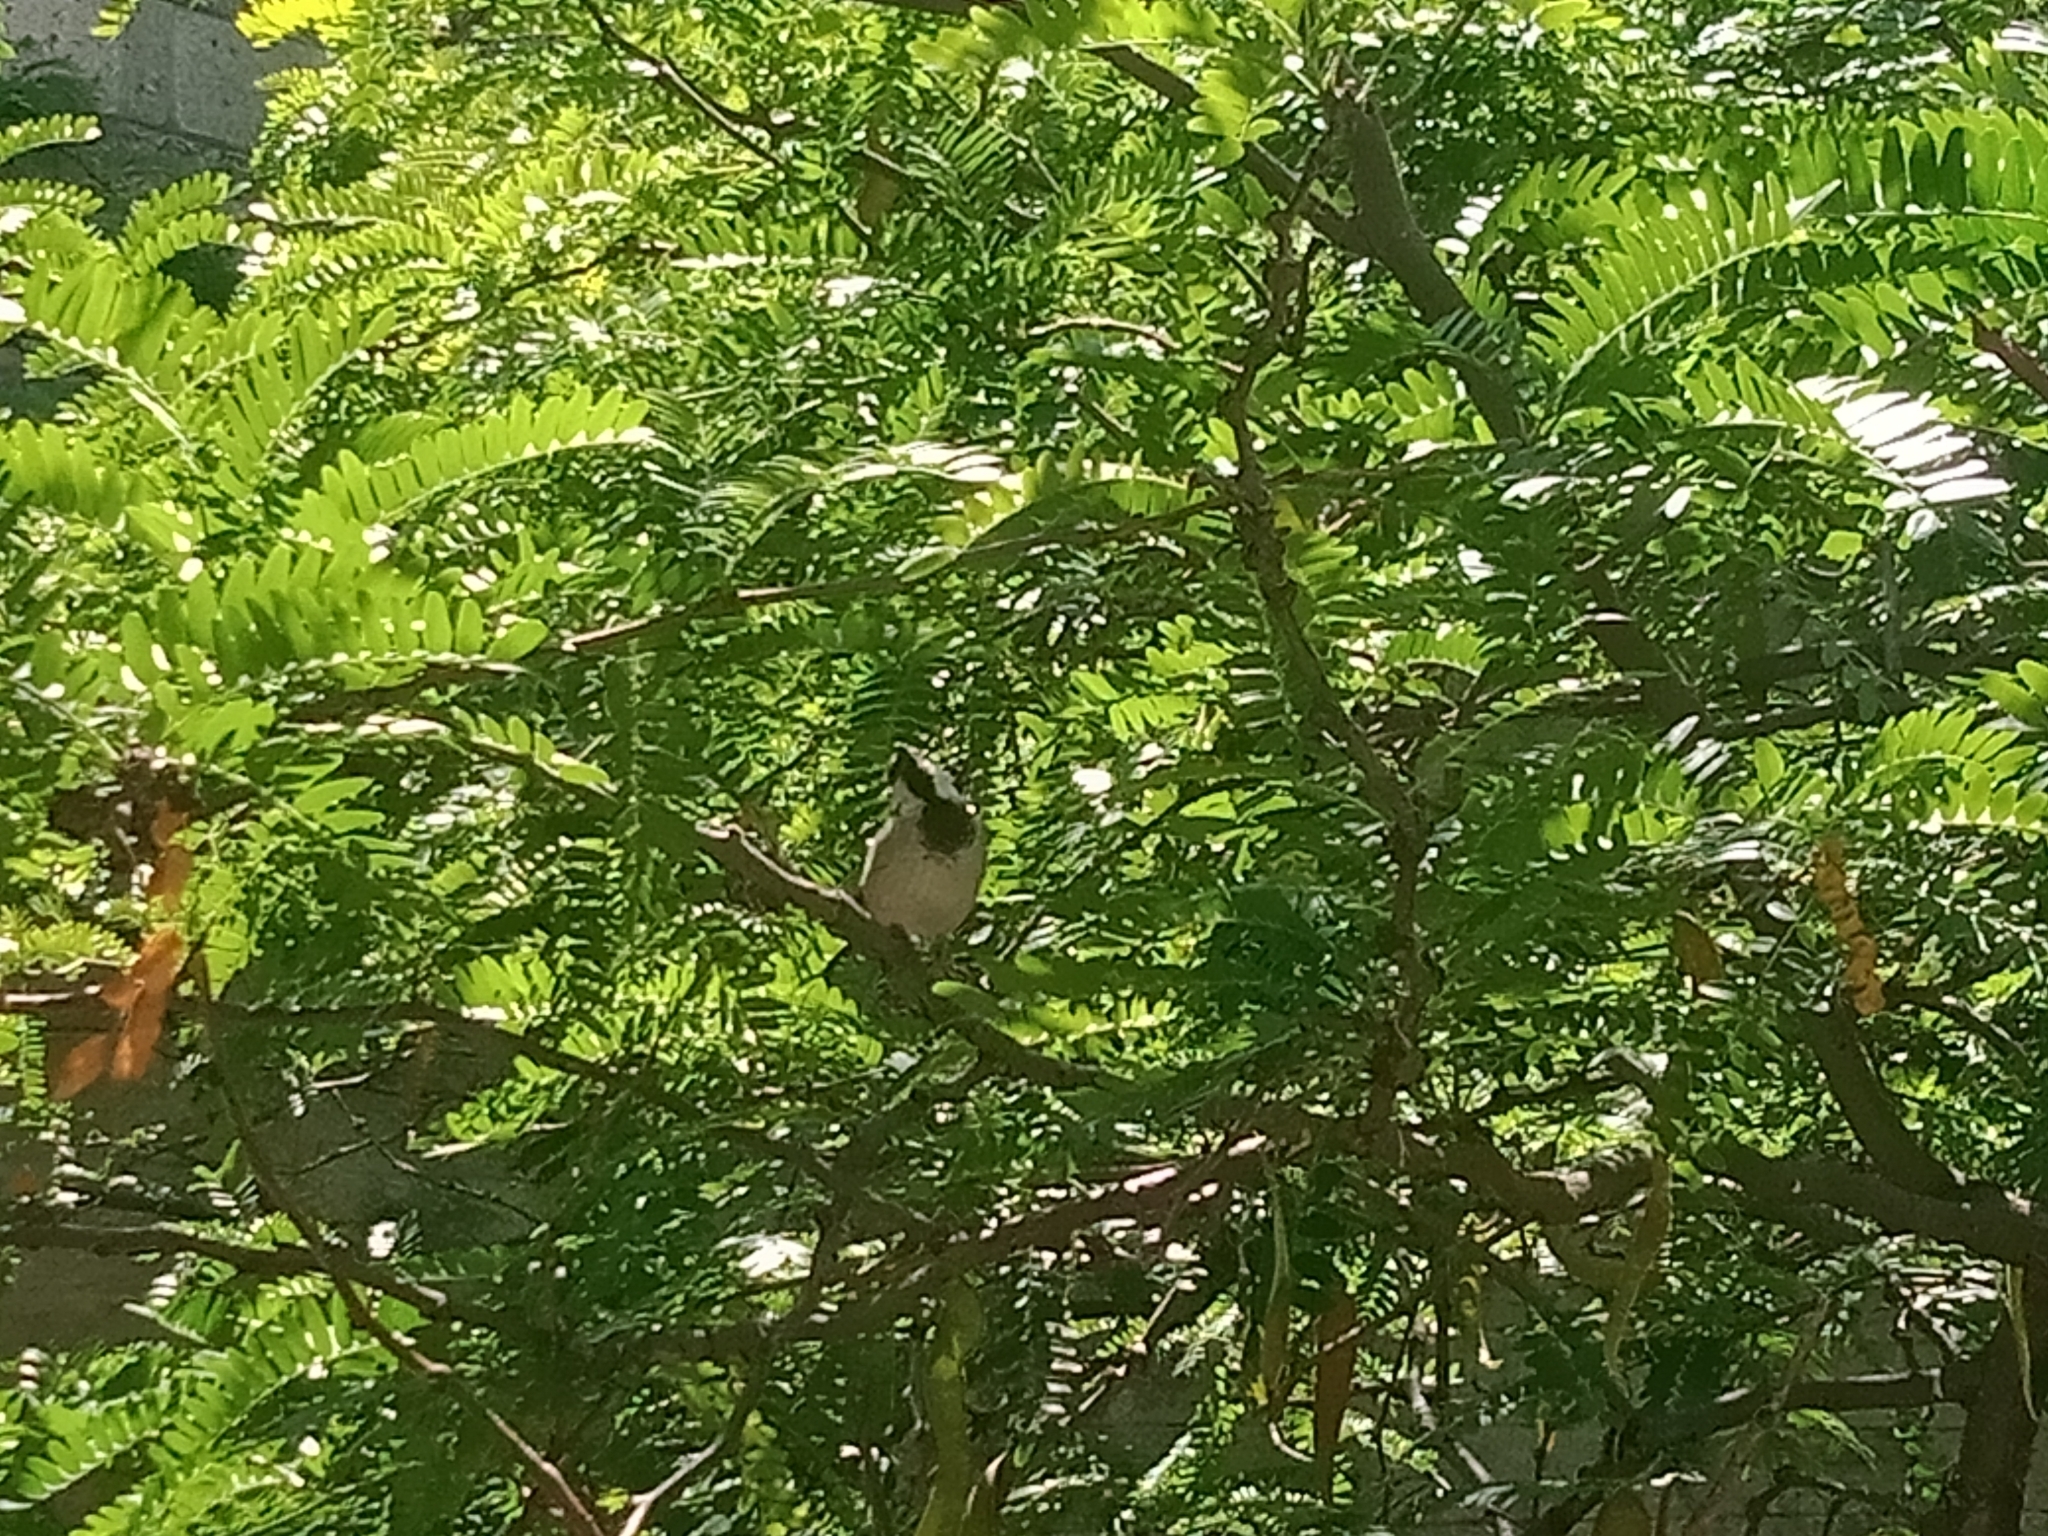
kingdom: Animalia
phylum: Chordata
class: Aves
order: Passeriformes
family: Passeridae
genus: Passer
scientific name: Passer domesticus
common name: House sparrow
